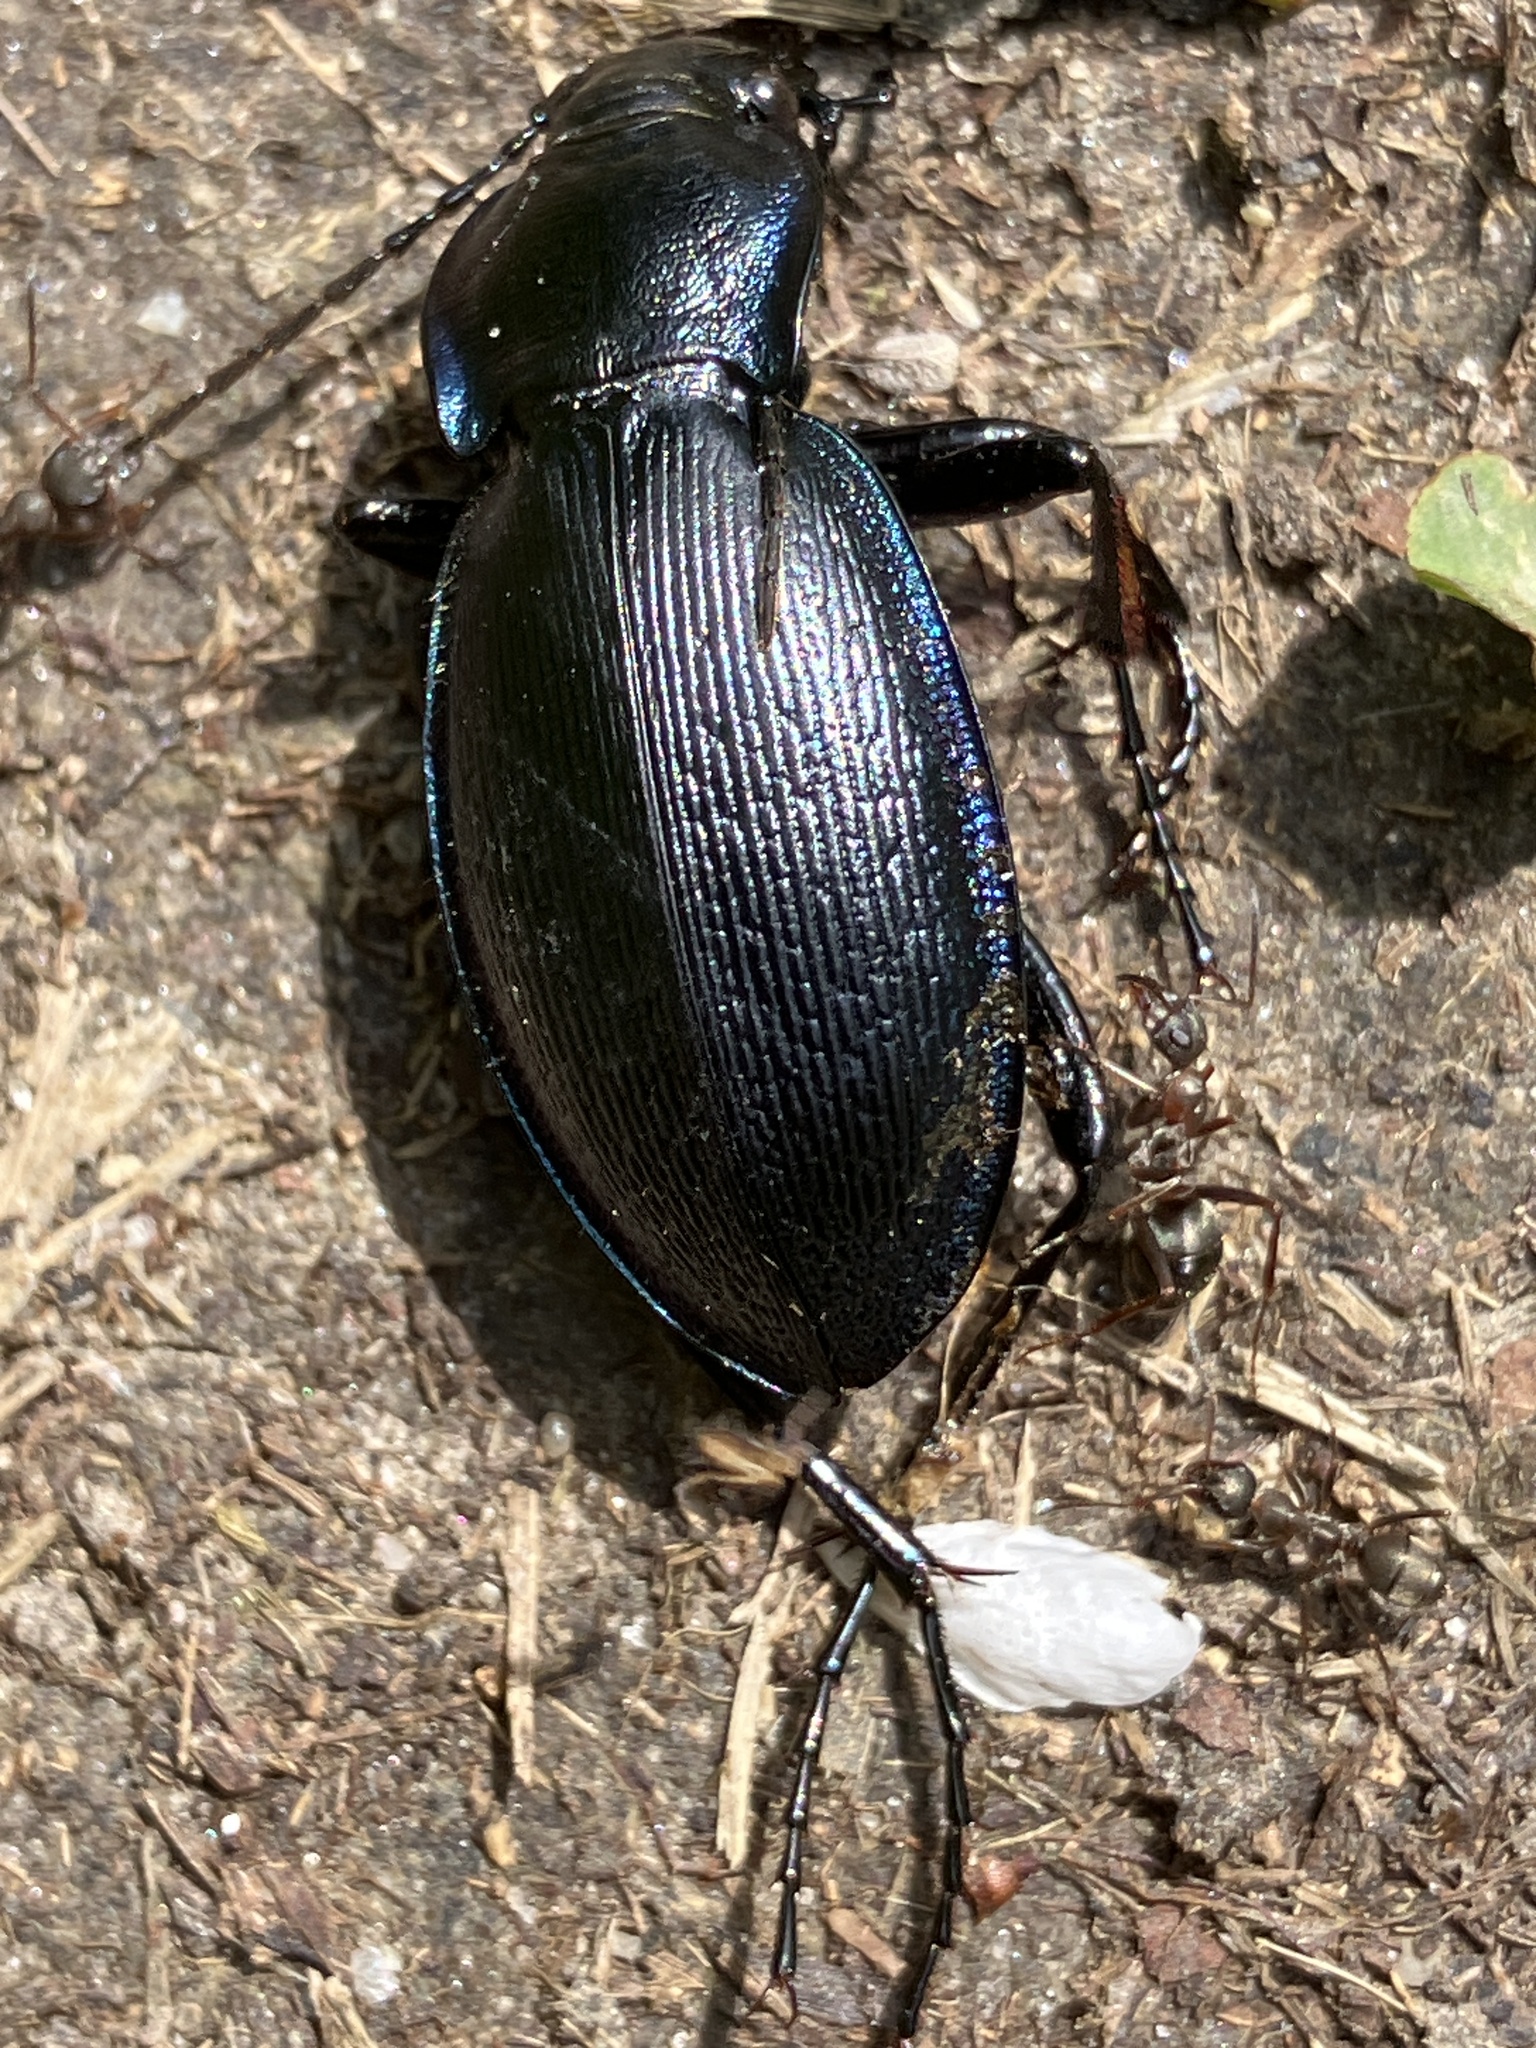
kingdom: Animalia
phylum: Arthropoda
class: Insecta
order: Coleoptera
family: Carabidae
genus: Carabus
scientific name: Carabus scheidleri
